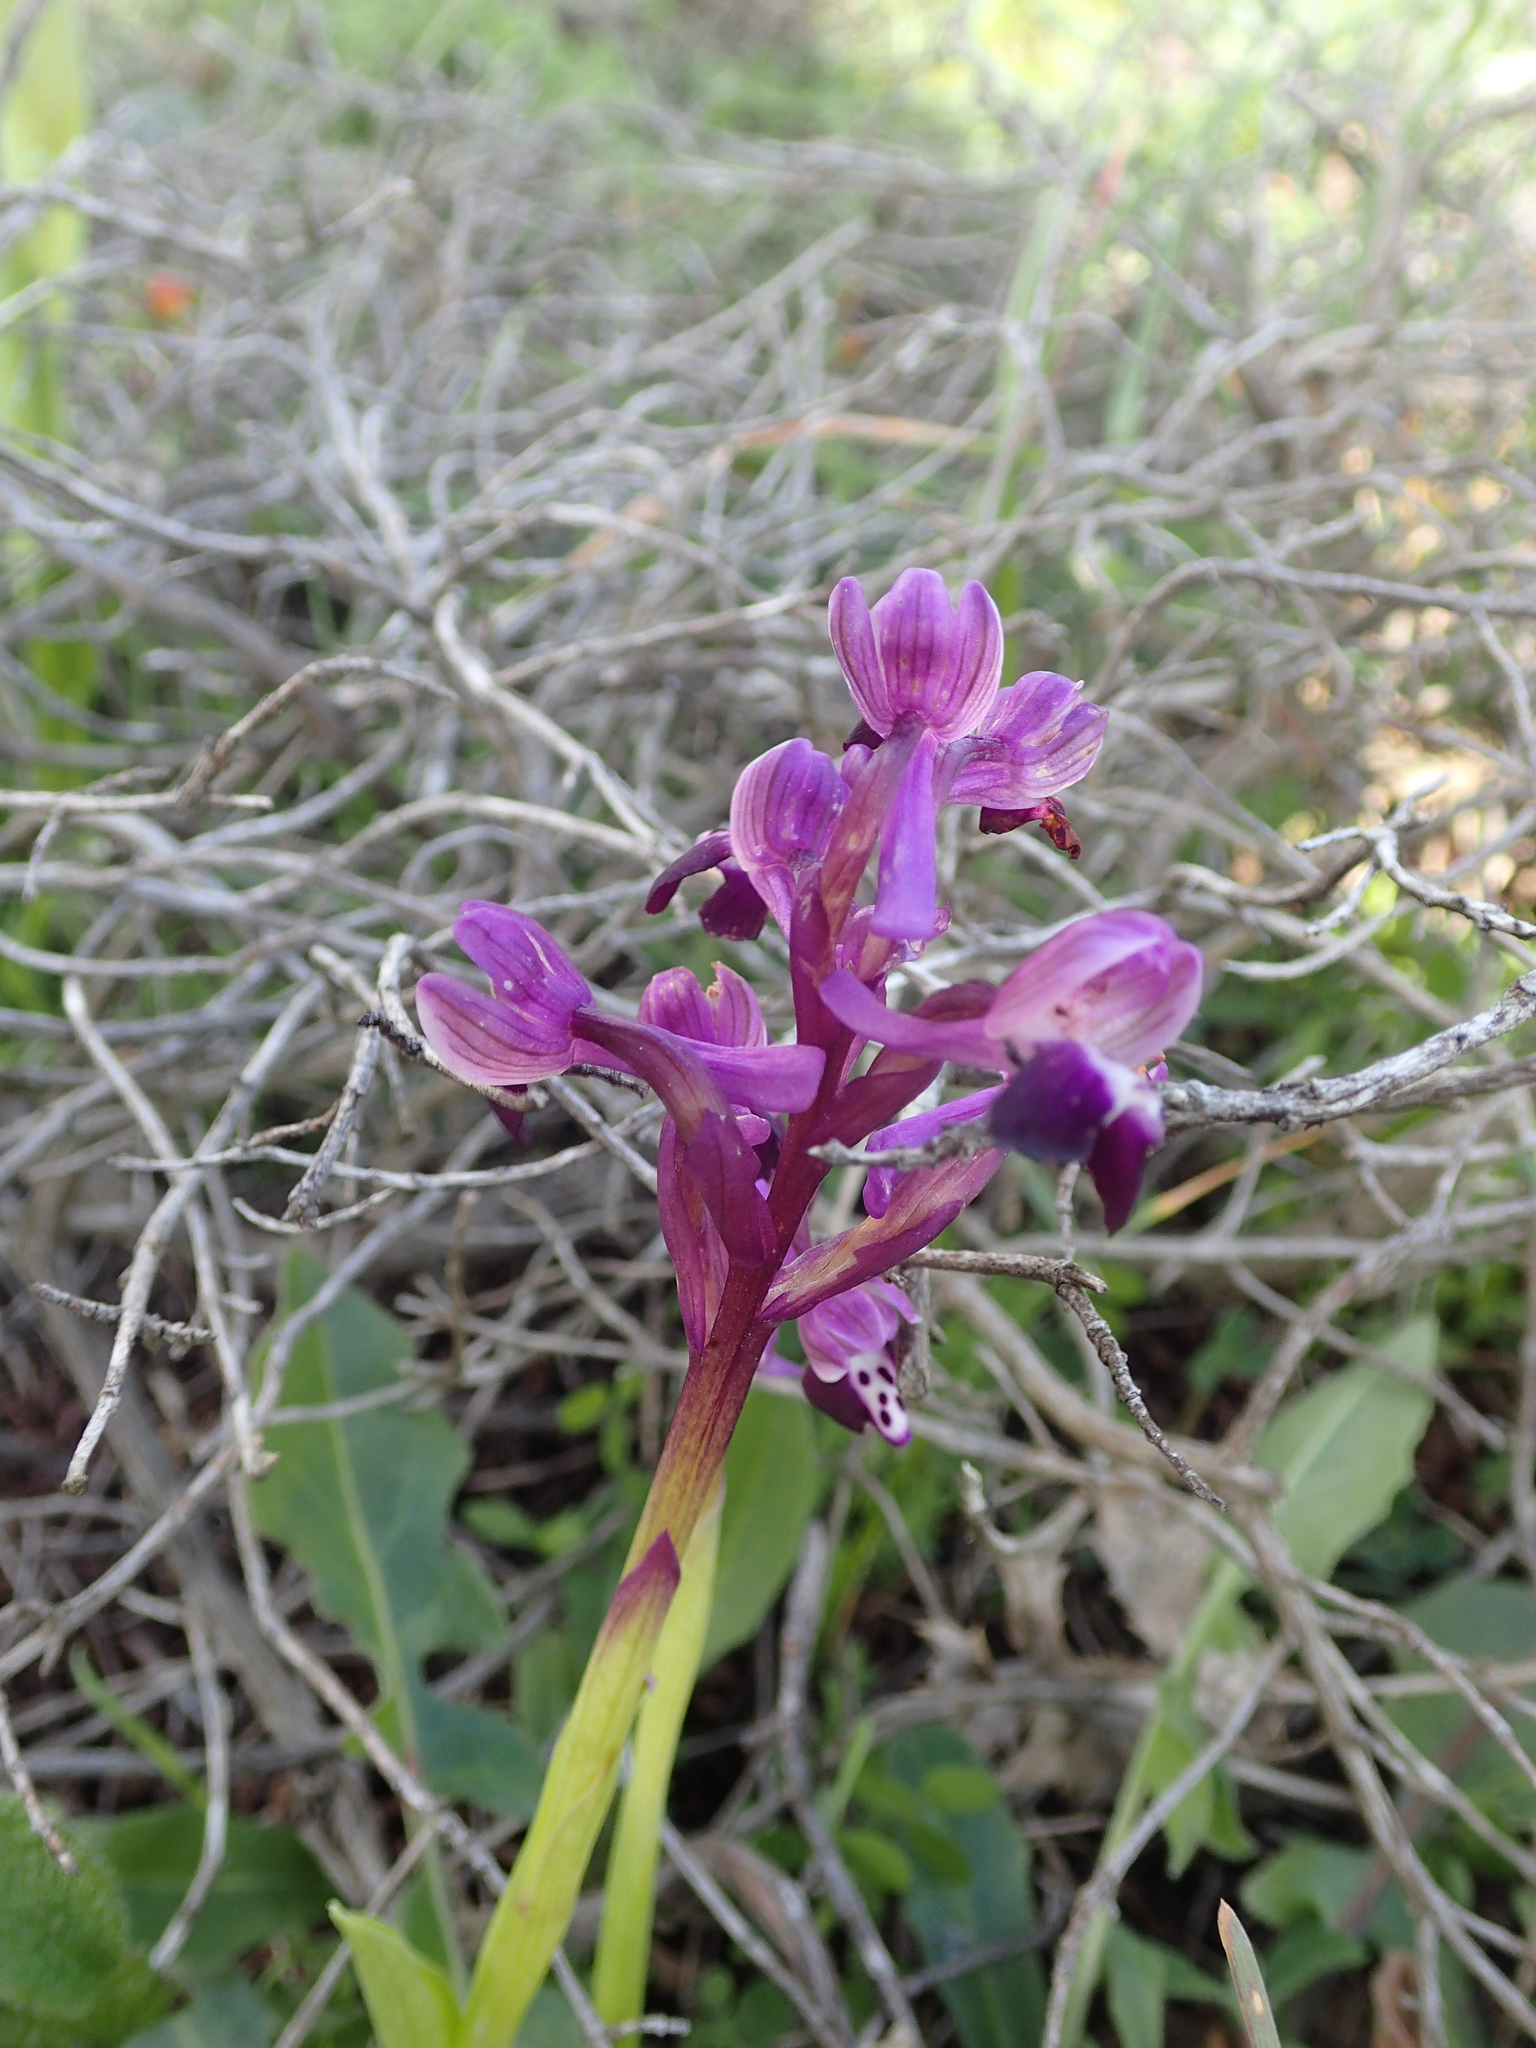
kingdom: Plantae
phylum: Tracheophyta
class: Liliopsida
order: Asparagales
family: Orchidaceae
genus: Anacamptis
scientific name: Anacamptis morio
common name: Green-winged orchid
